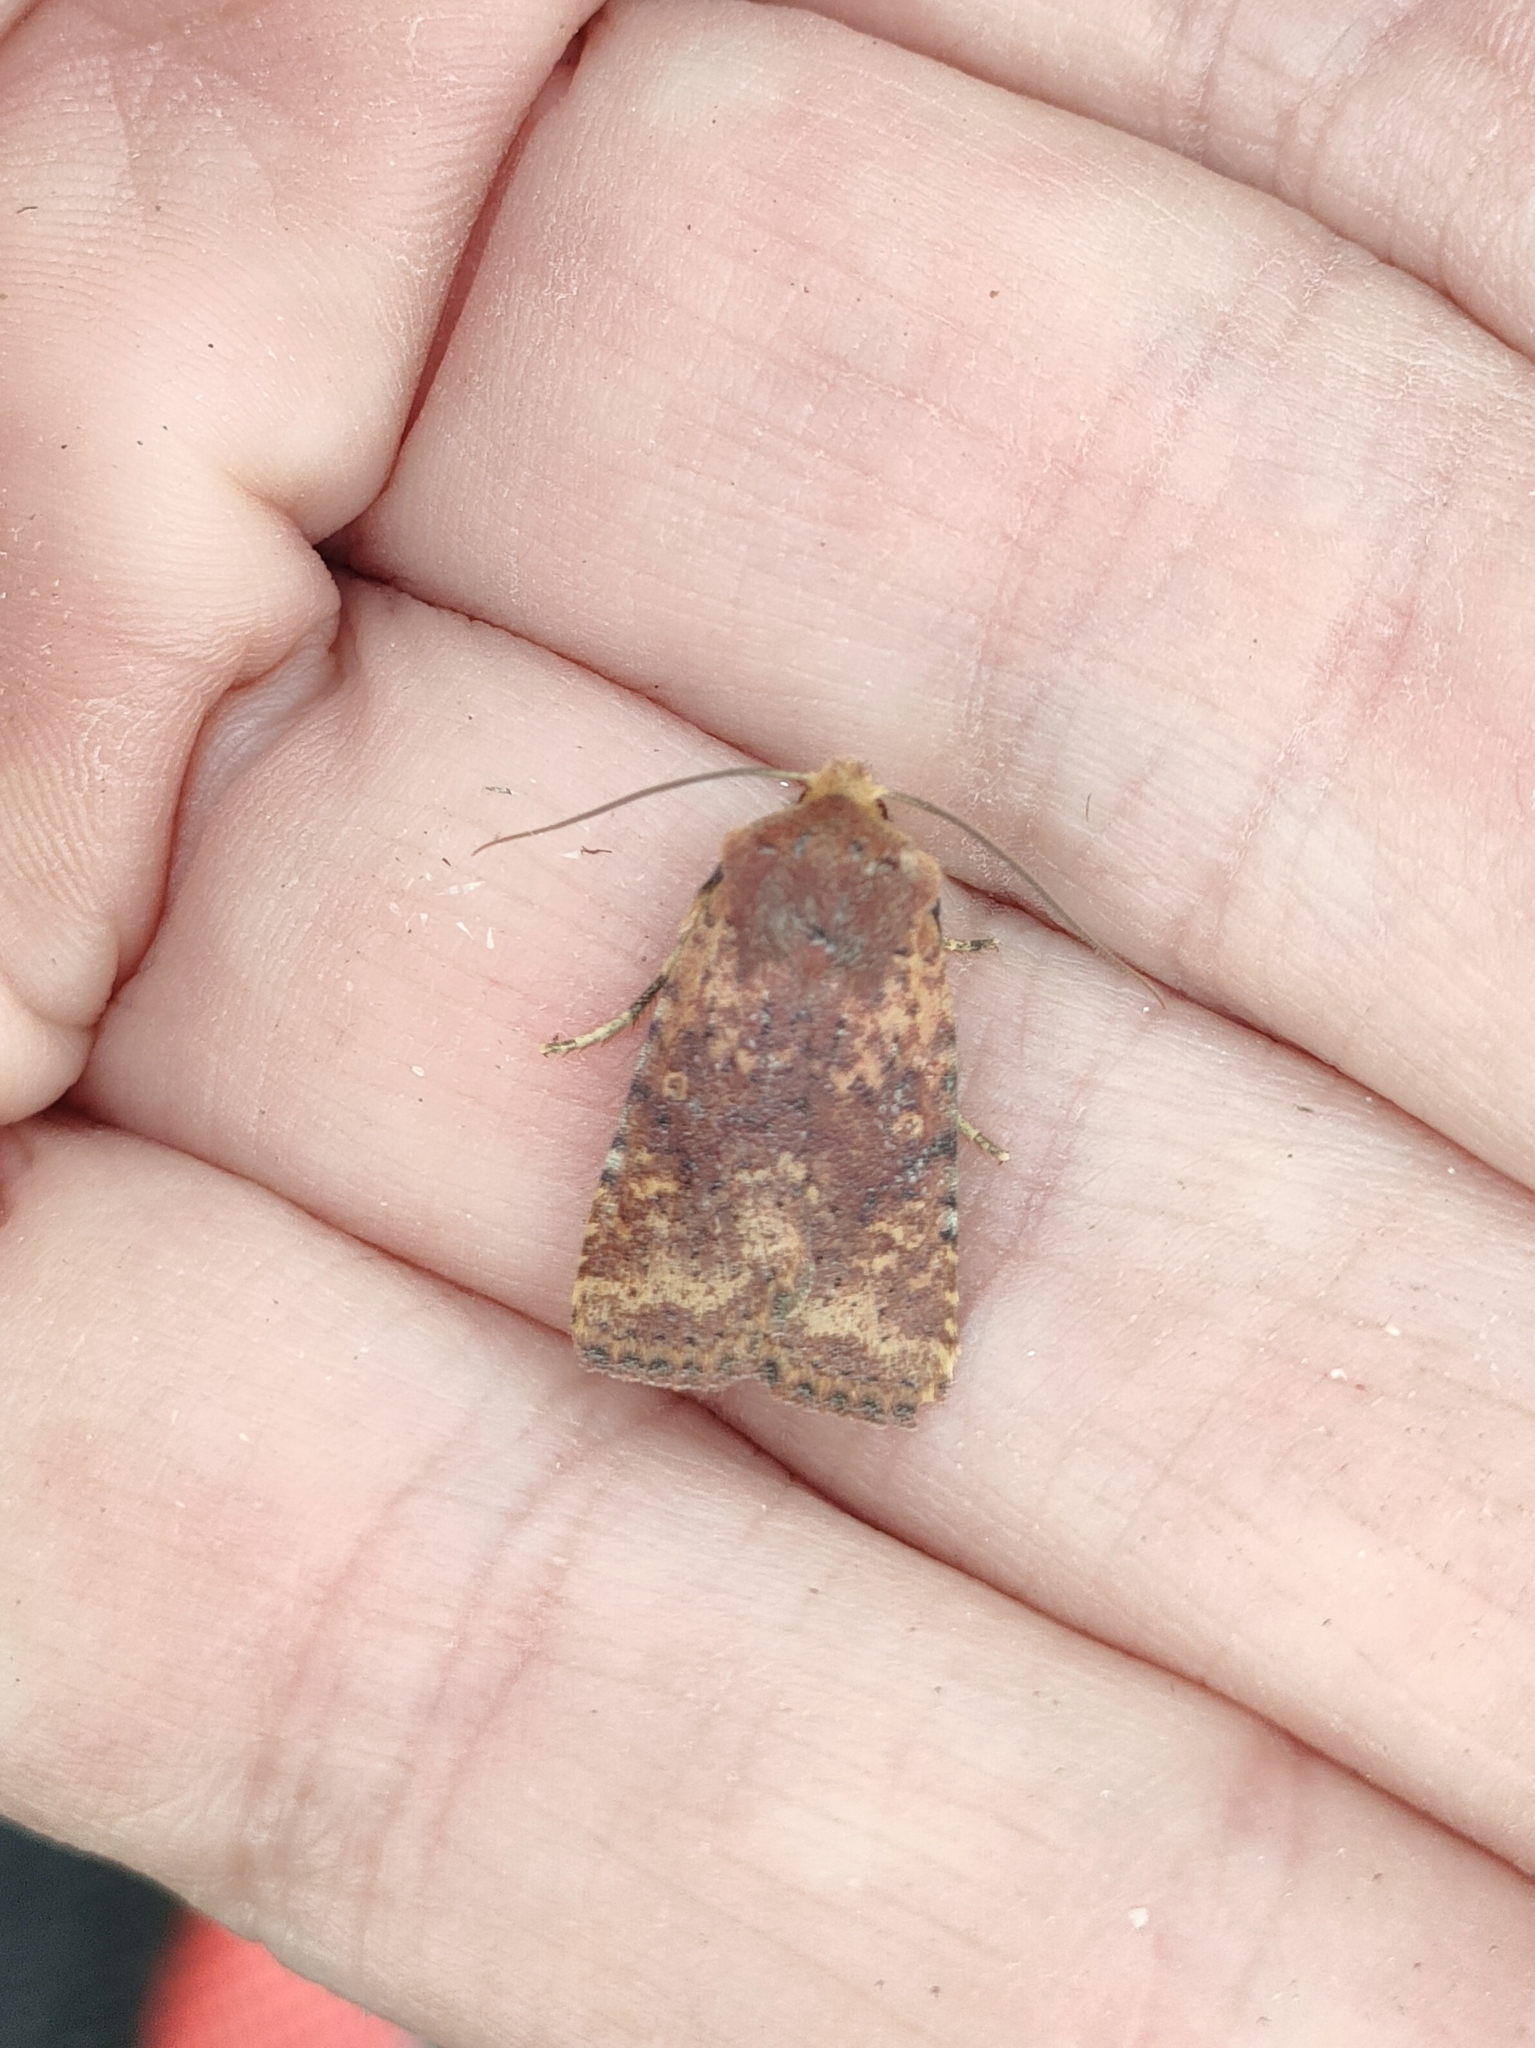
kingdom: Animalia
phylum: Arthropoda
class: Insecta
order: Lepidoptera
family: Noctuidae
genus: Conistra
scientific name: Conistra staudingeri
